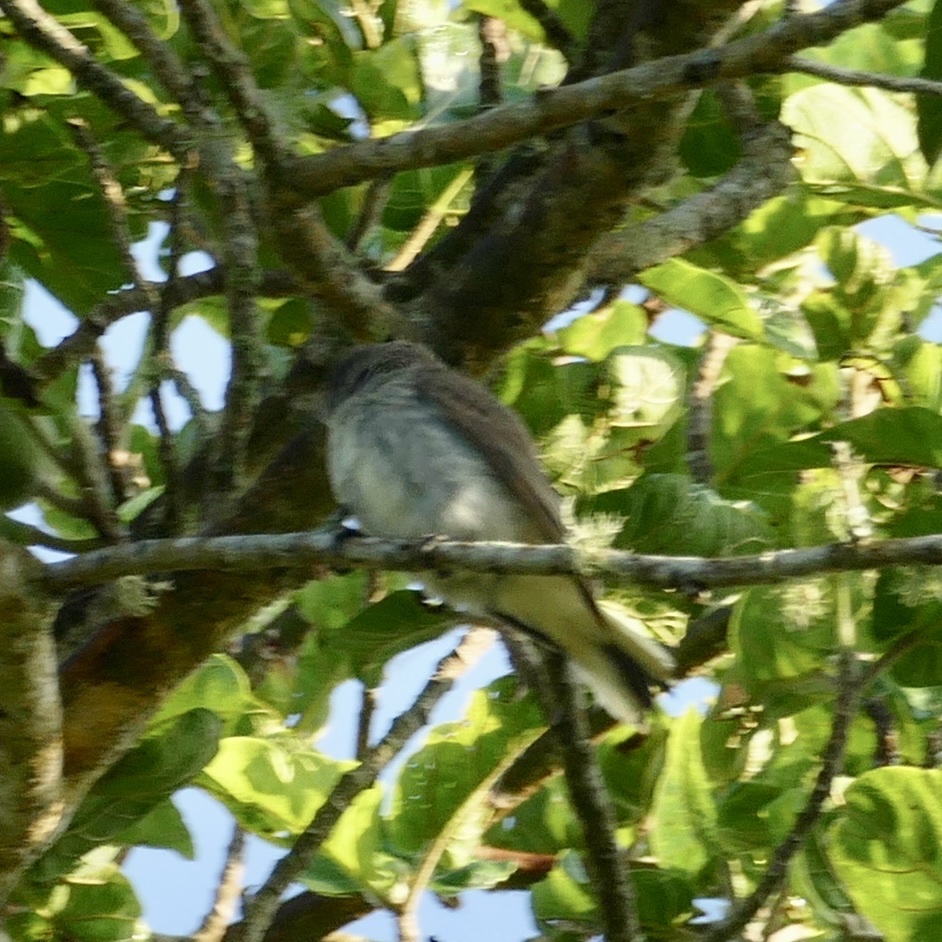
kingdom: Animalia
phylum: Chordata
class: Aves
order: Piciformes
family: Indicatoridae
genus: Prodotiscus
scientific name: Prodotiscus regulus
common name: Brown-backed honeybird
